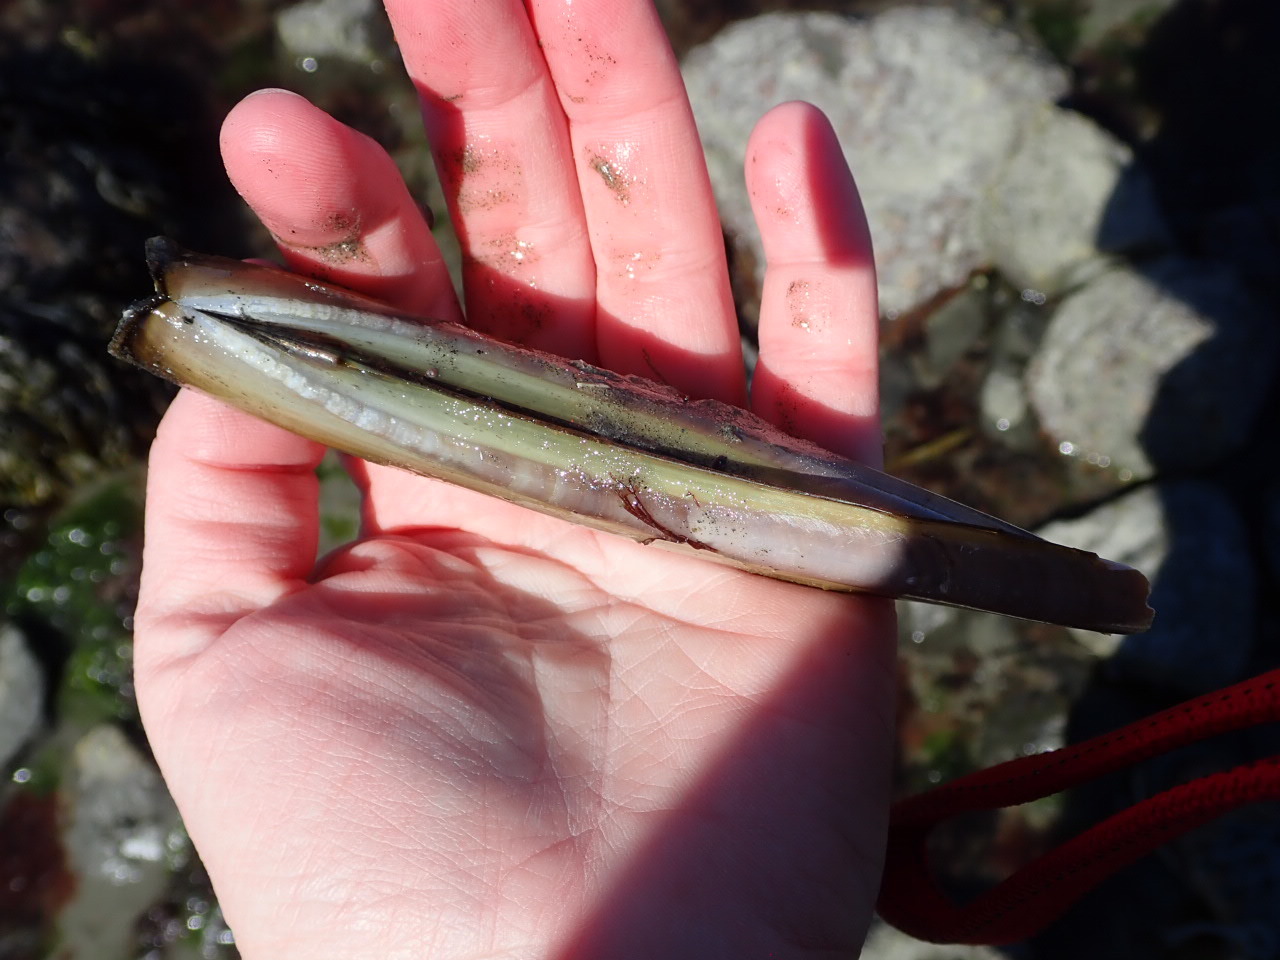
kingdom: Animalia
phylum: Mollusca
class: Bivalvia
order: Adapedonta
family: Pharidae
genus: Ensis
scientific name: Ensis leei
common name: American jack knife clam
